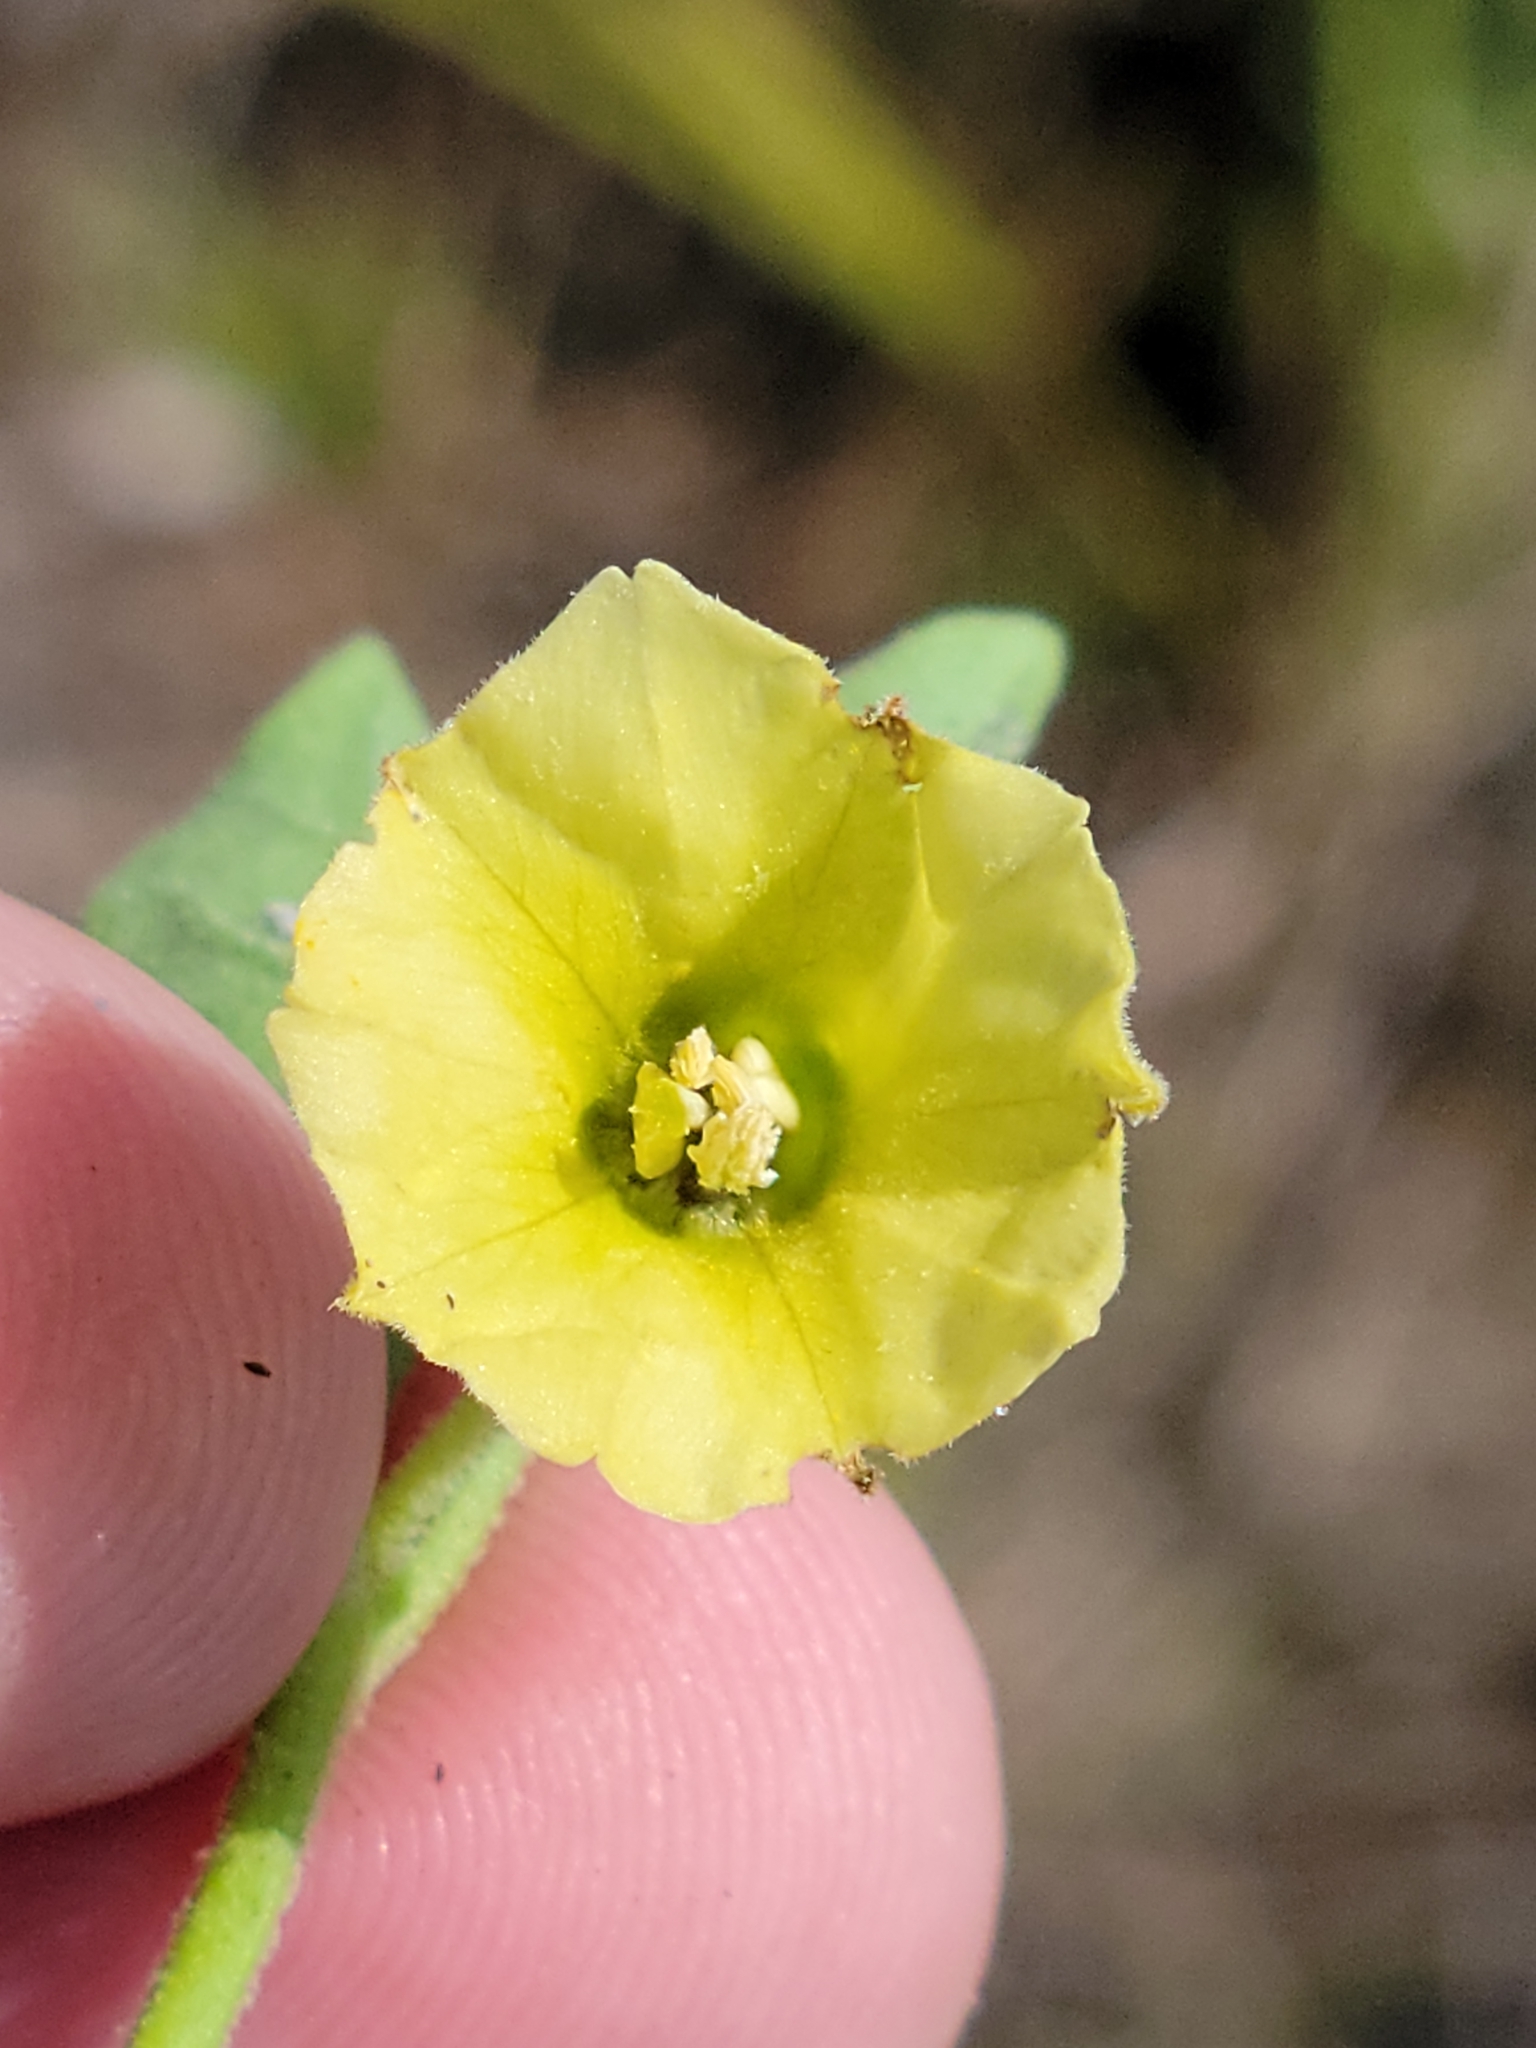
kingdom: Plantae
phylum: Tracheophyta
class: Magnoliopsida
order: Solanales
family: Solanaceae
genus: Physalis
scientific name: Physalis walteri
